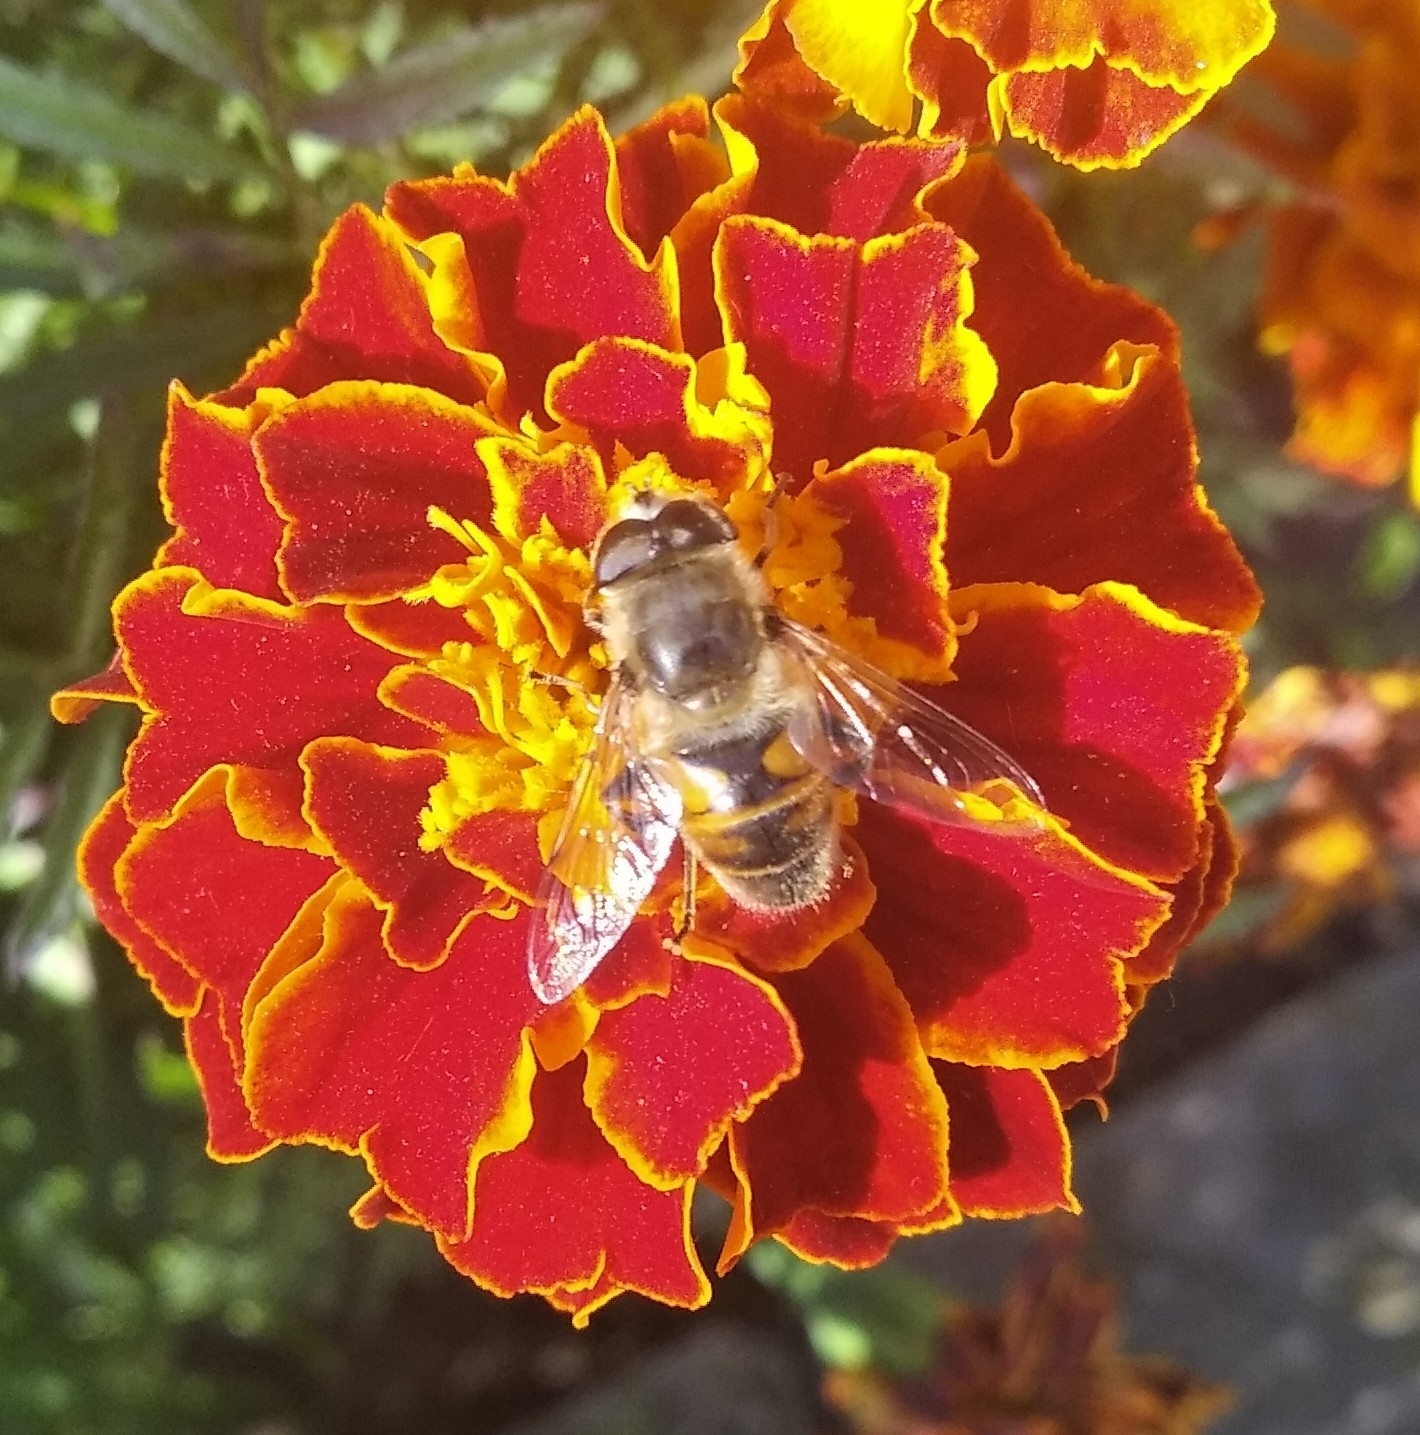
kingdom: Animalia
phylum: Arthropoda
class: Insecta
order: Diptera
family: Syrphidae
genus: Eristalis
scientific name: Eristalis tenax
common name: Drone fly
